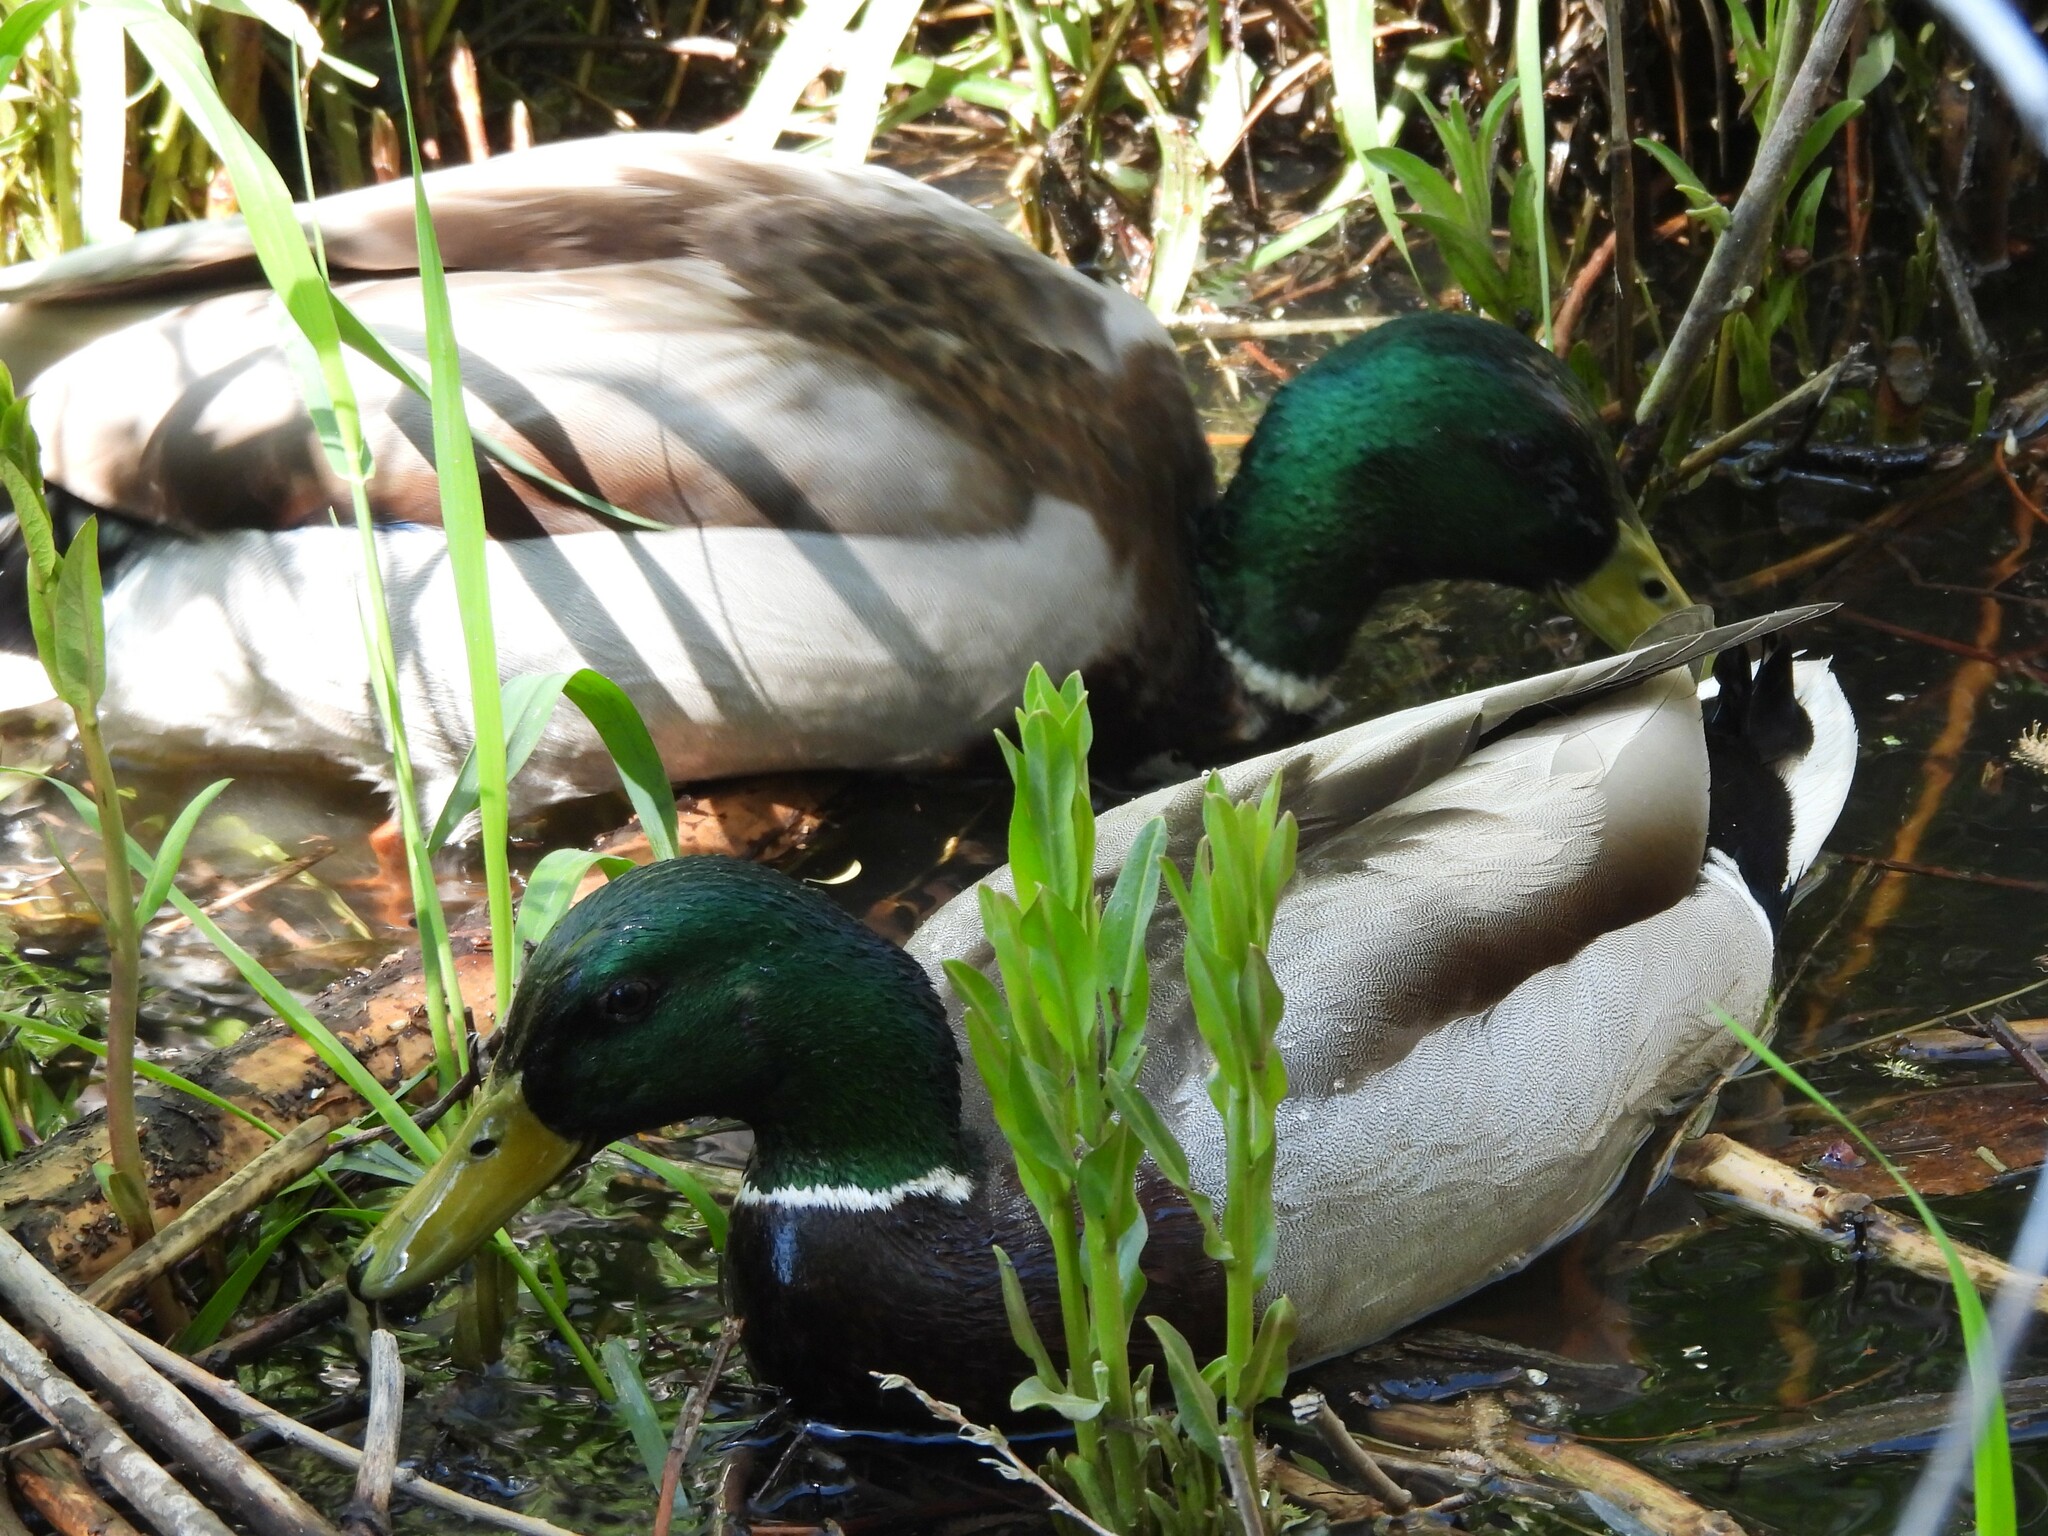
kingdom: Animalia
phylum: Chordata
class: Aves
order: Anseriformes
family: Anatidae
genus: Anas
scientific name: Anas platyrhynchos
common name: Mallard
